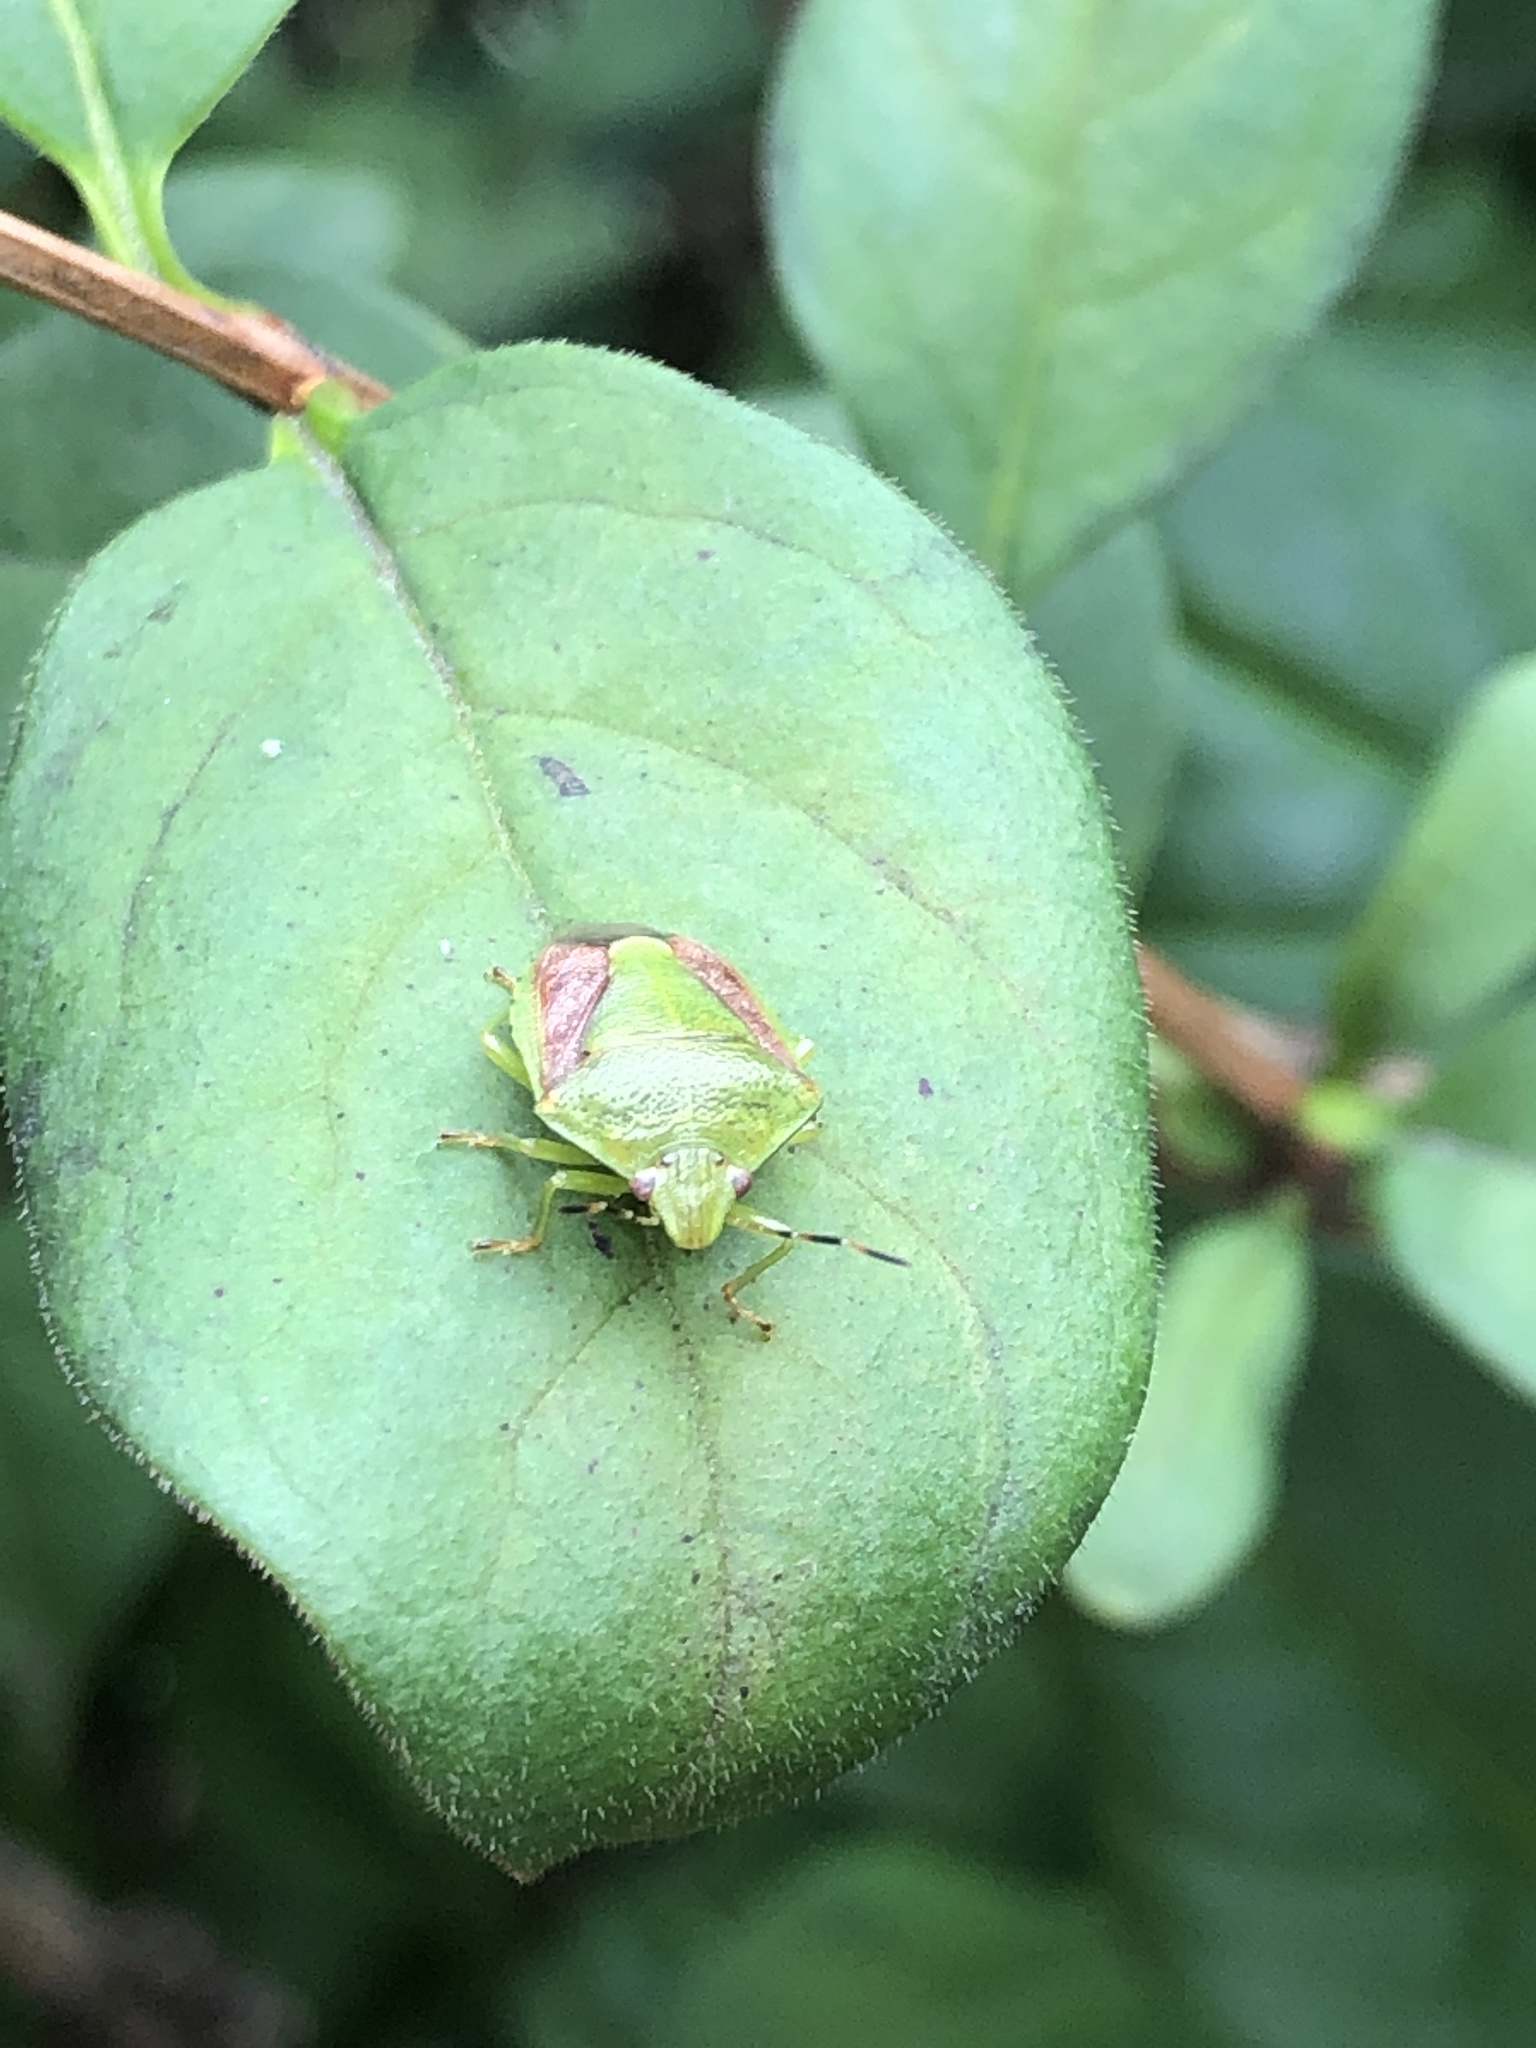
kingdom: Animalia
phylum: Arthropoda
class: Insecta
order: Hemiptera
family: Pentatomidae
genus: Plautia
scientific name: Plautia stali
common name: Stink bug
